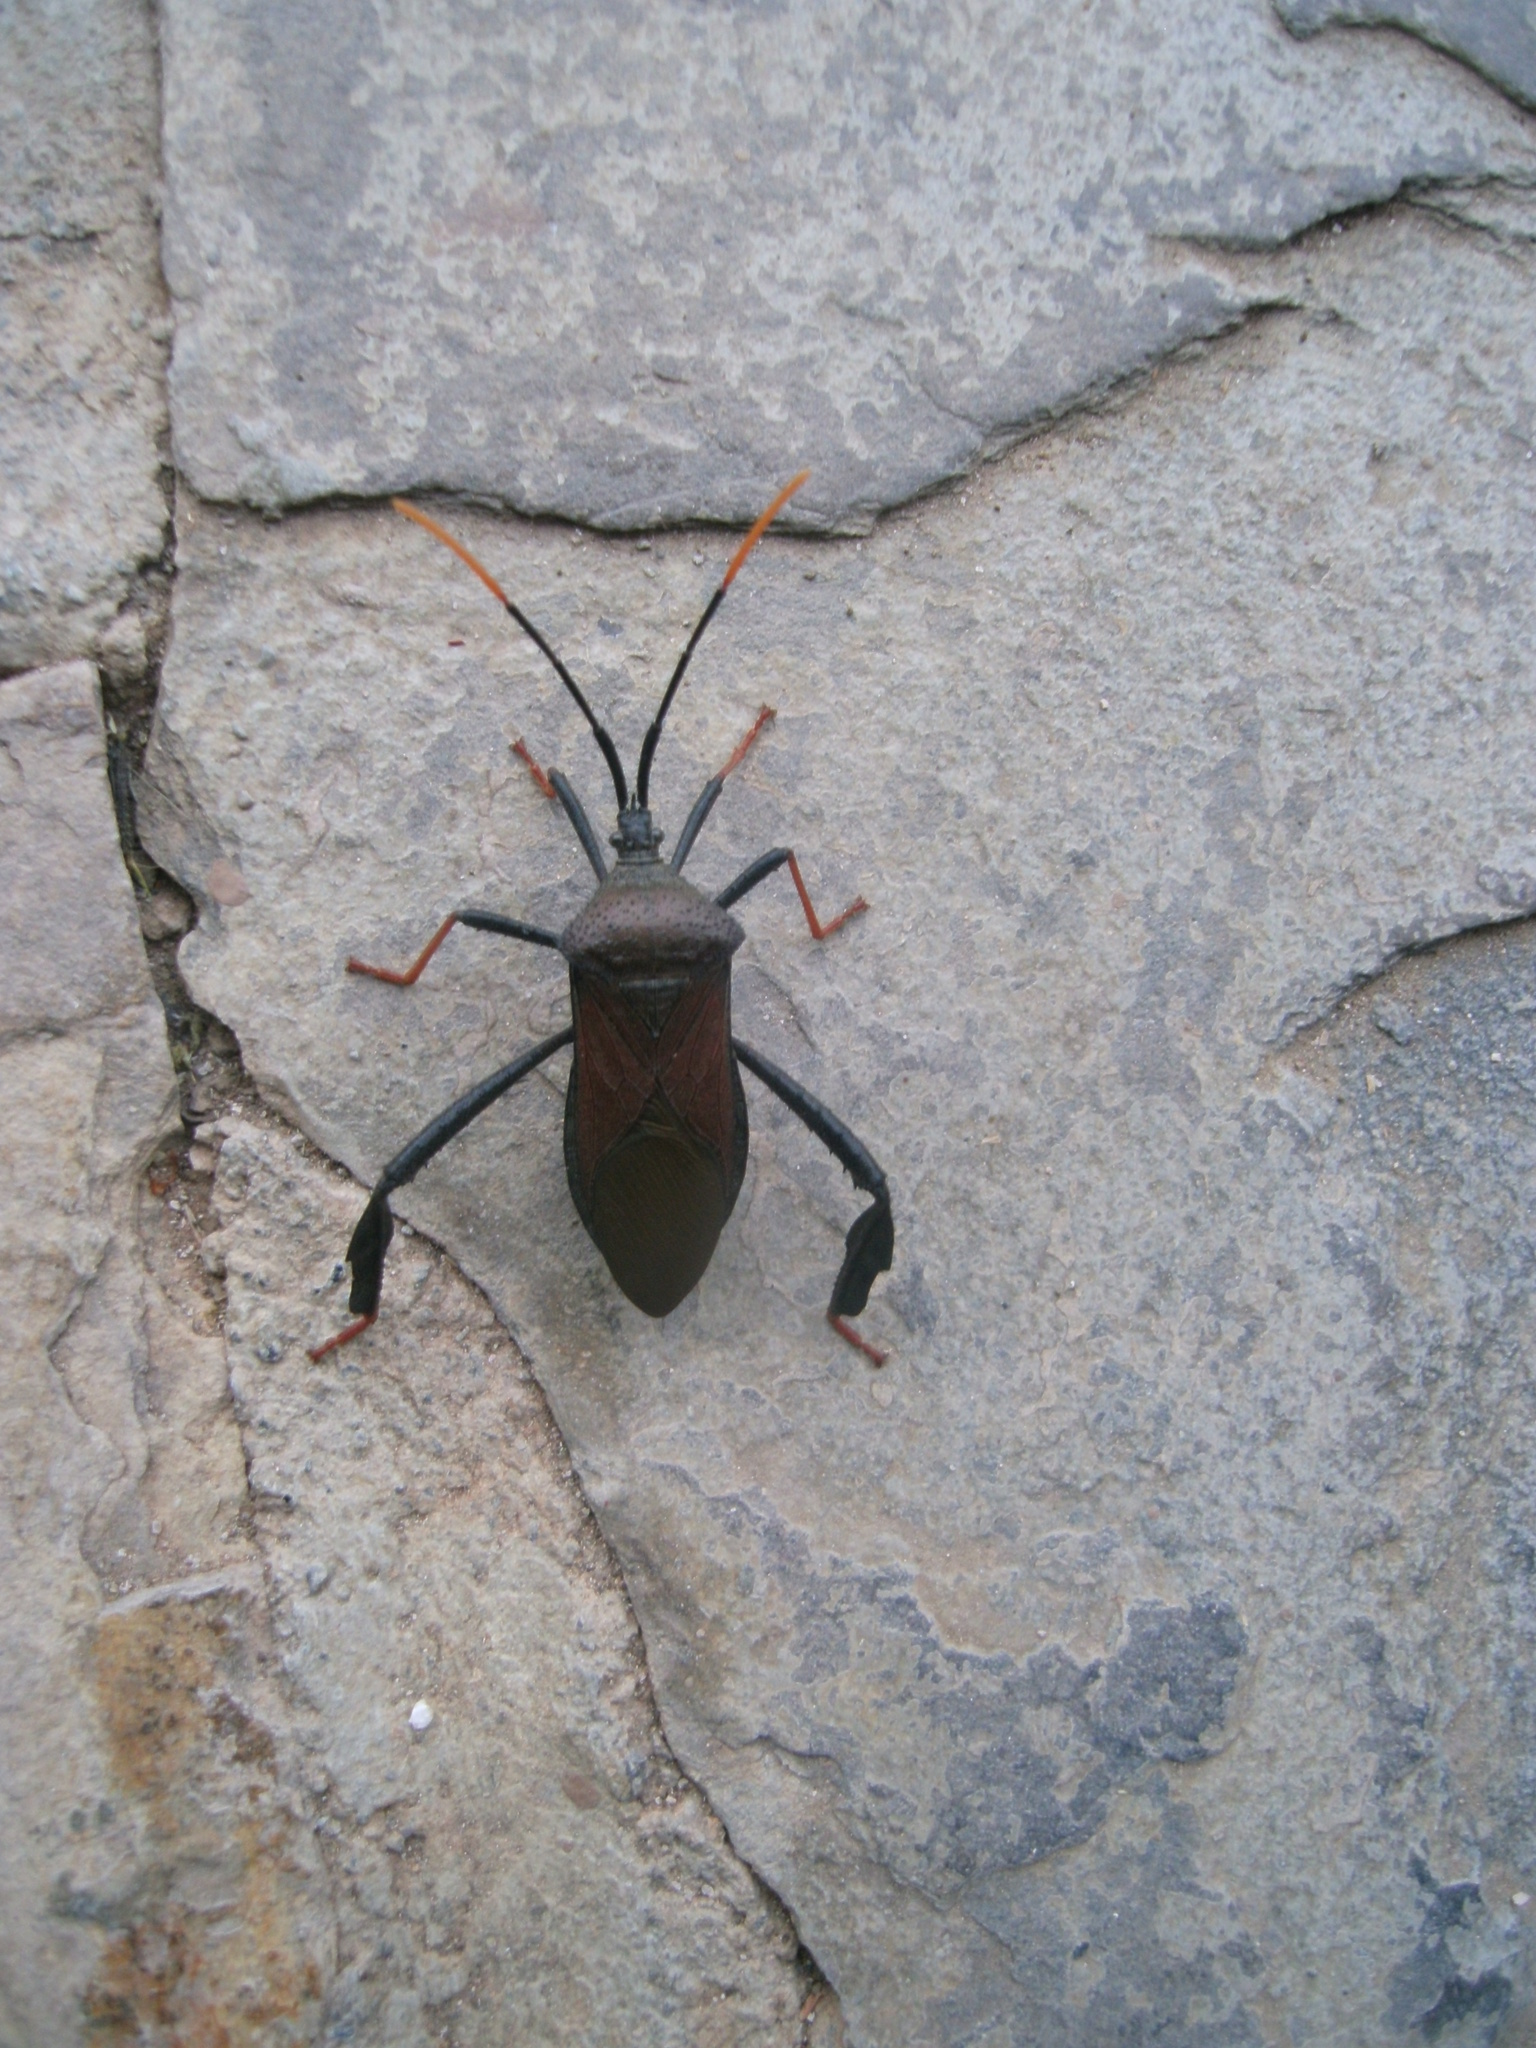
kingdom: Animalia
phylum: Arthropoda
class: Insecta
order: Hemiptera
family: Coreidae
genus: Acanthocephala
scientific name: Acanthocephala thomasi
